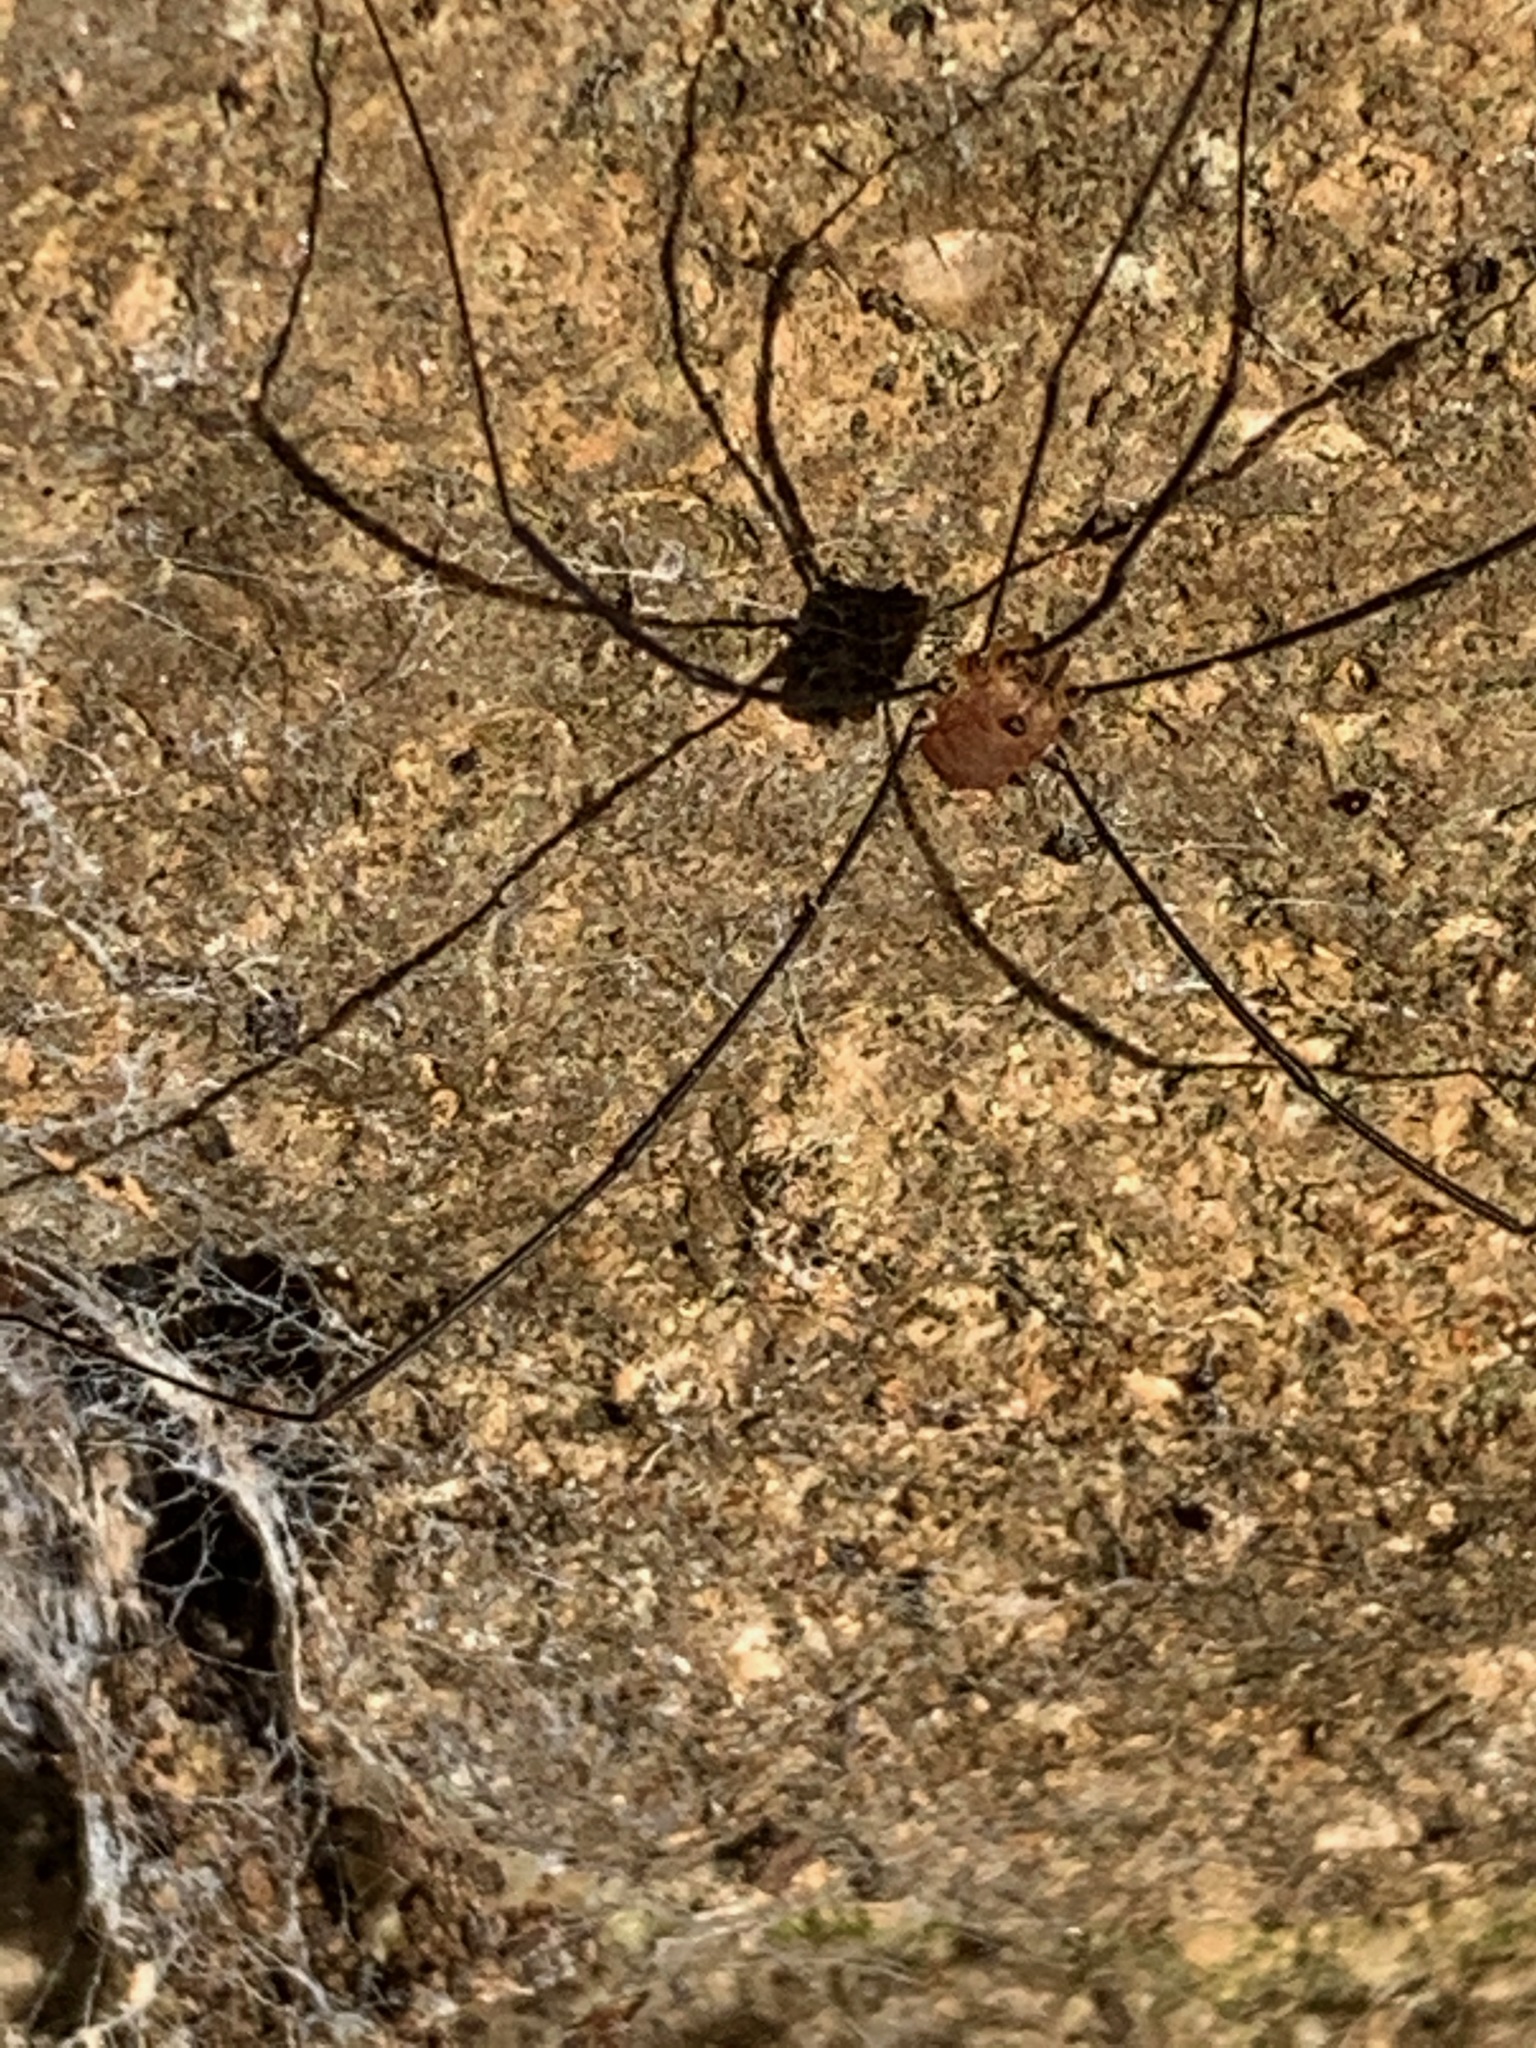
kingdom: Animalia
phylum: Arthropoda
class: Arachnida
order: Opiliones
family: Sclerosomatidae
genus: Leiobunum
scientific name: Leiobunum rotundum
